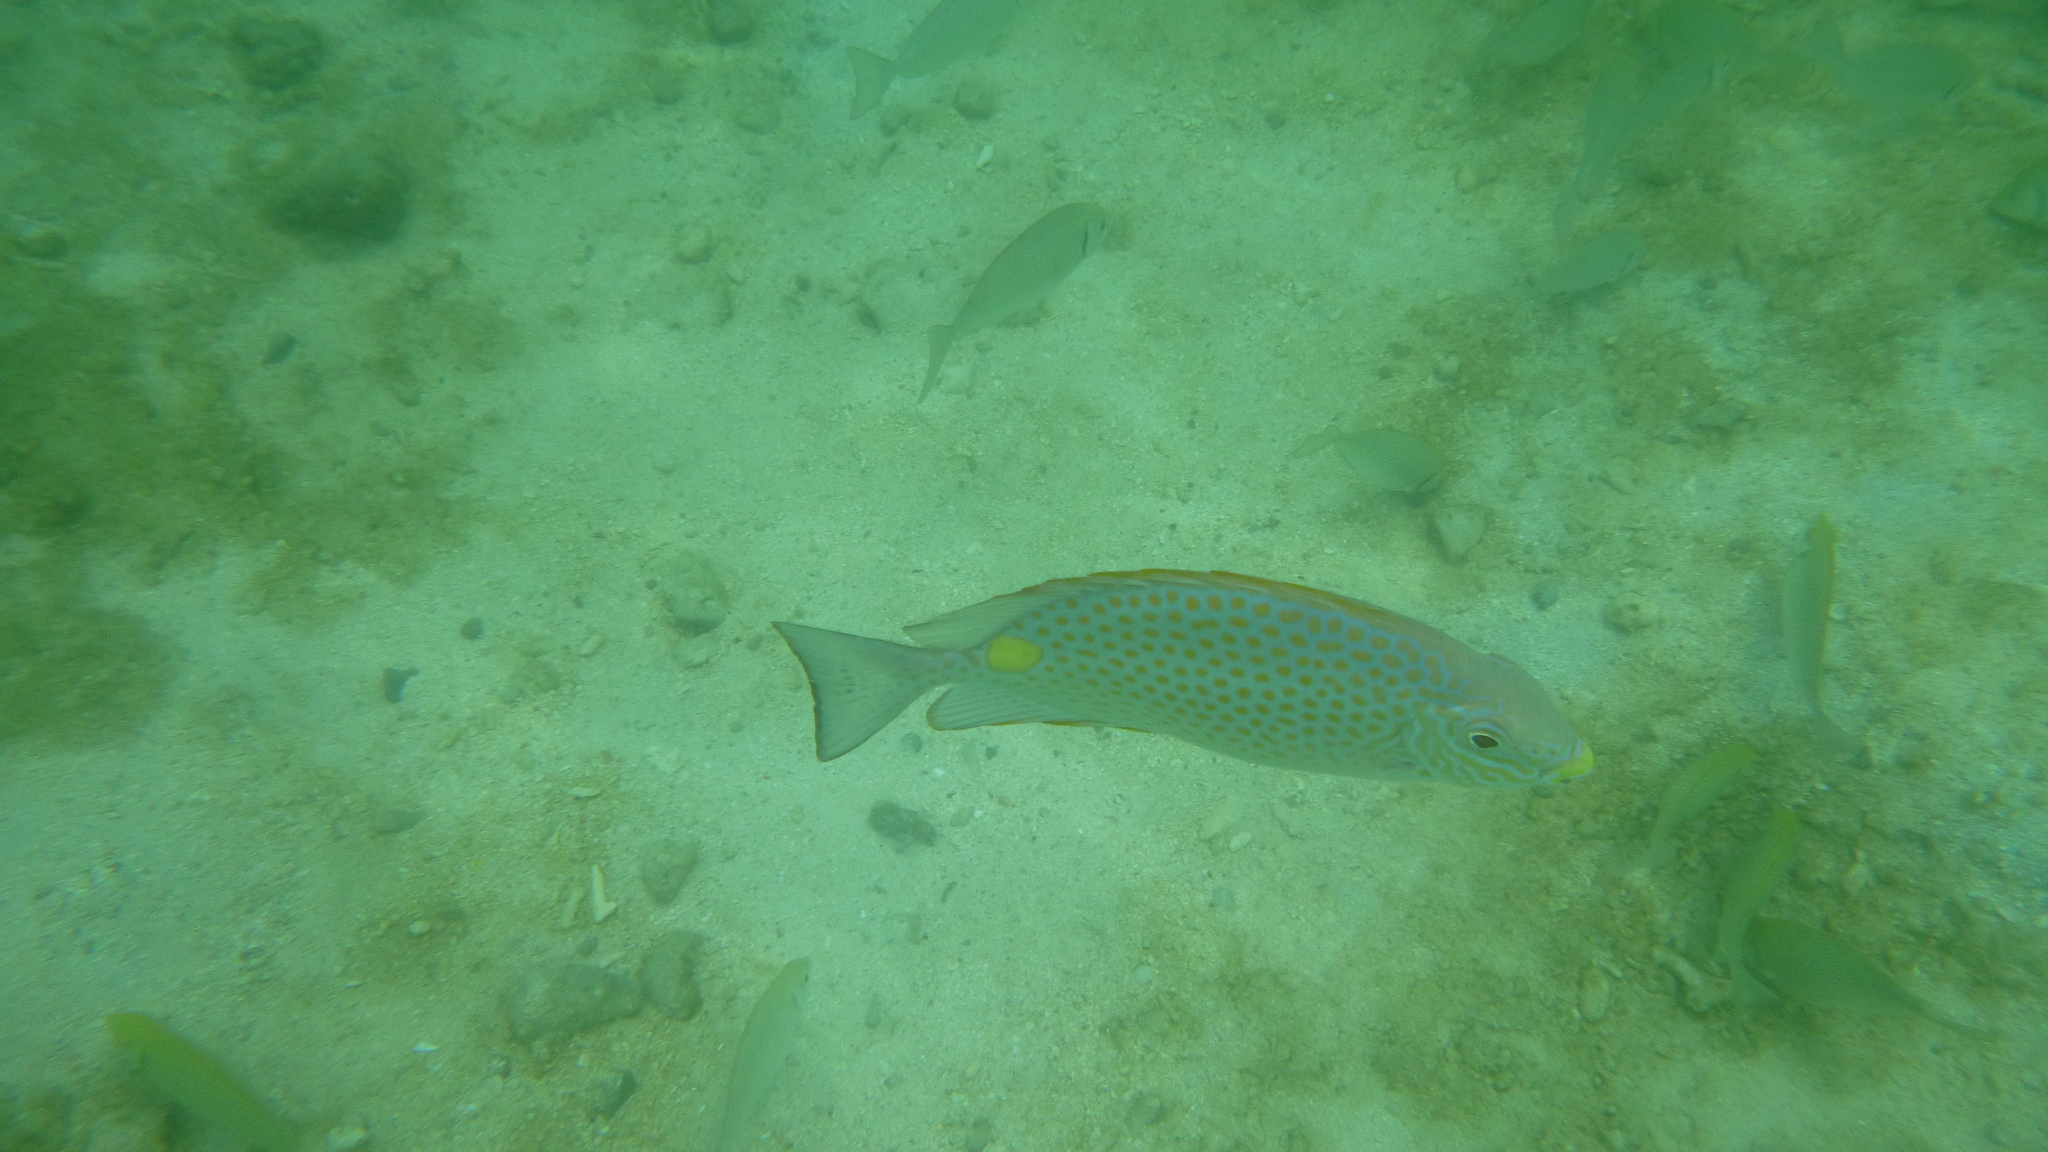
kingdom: Animalia
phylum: Chordata
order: Perciformes
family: Haemulidae
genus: Plectorhinchus
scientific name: Plectorhinchus flavomaculatus
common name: Netted sweetlips
